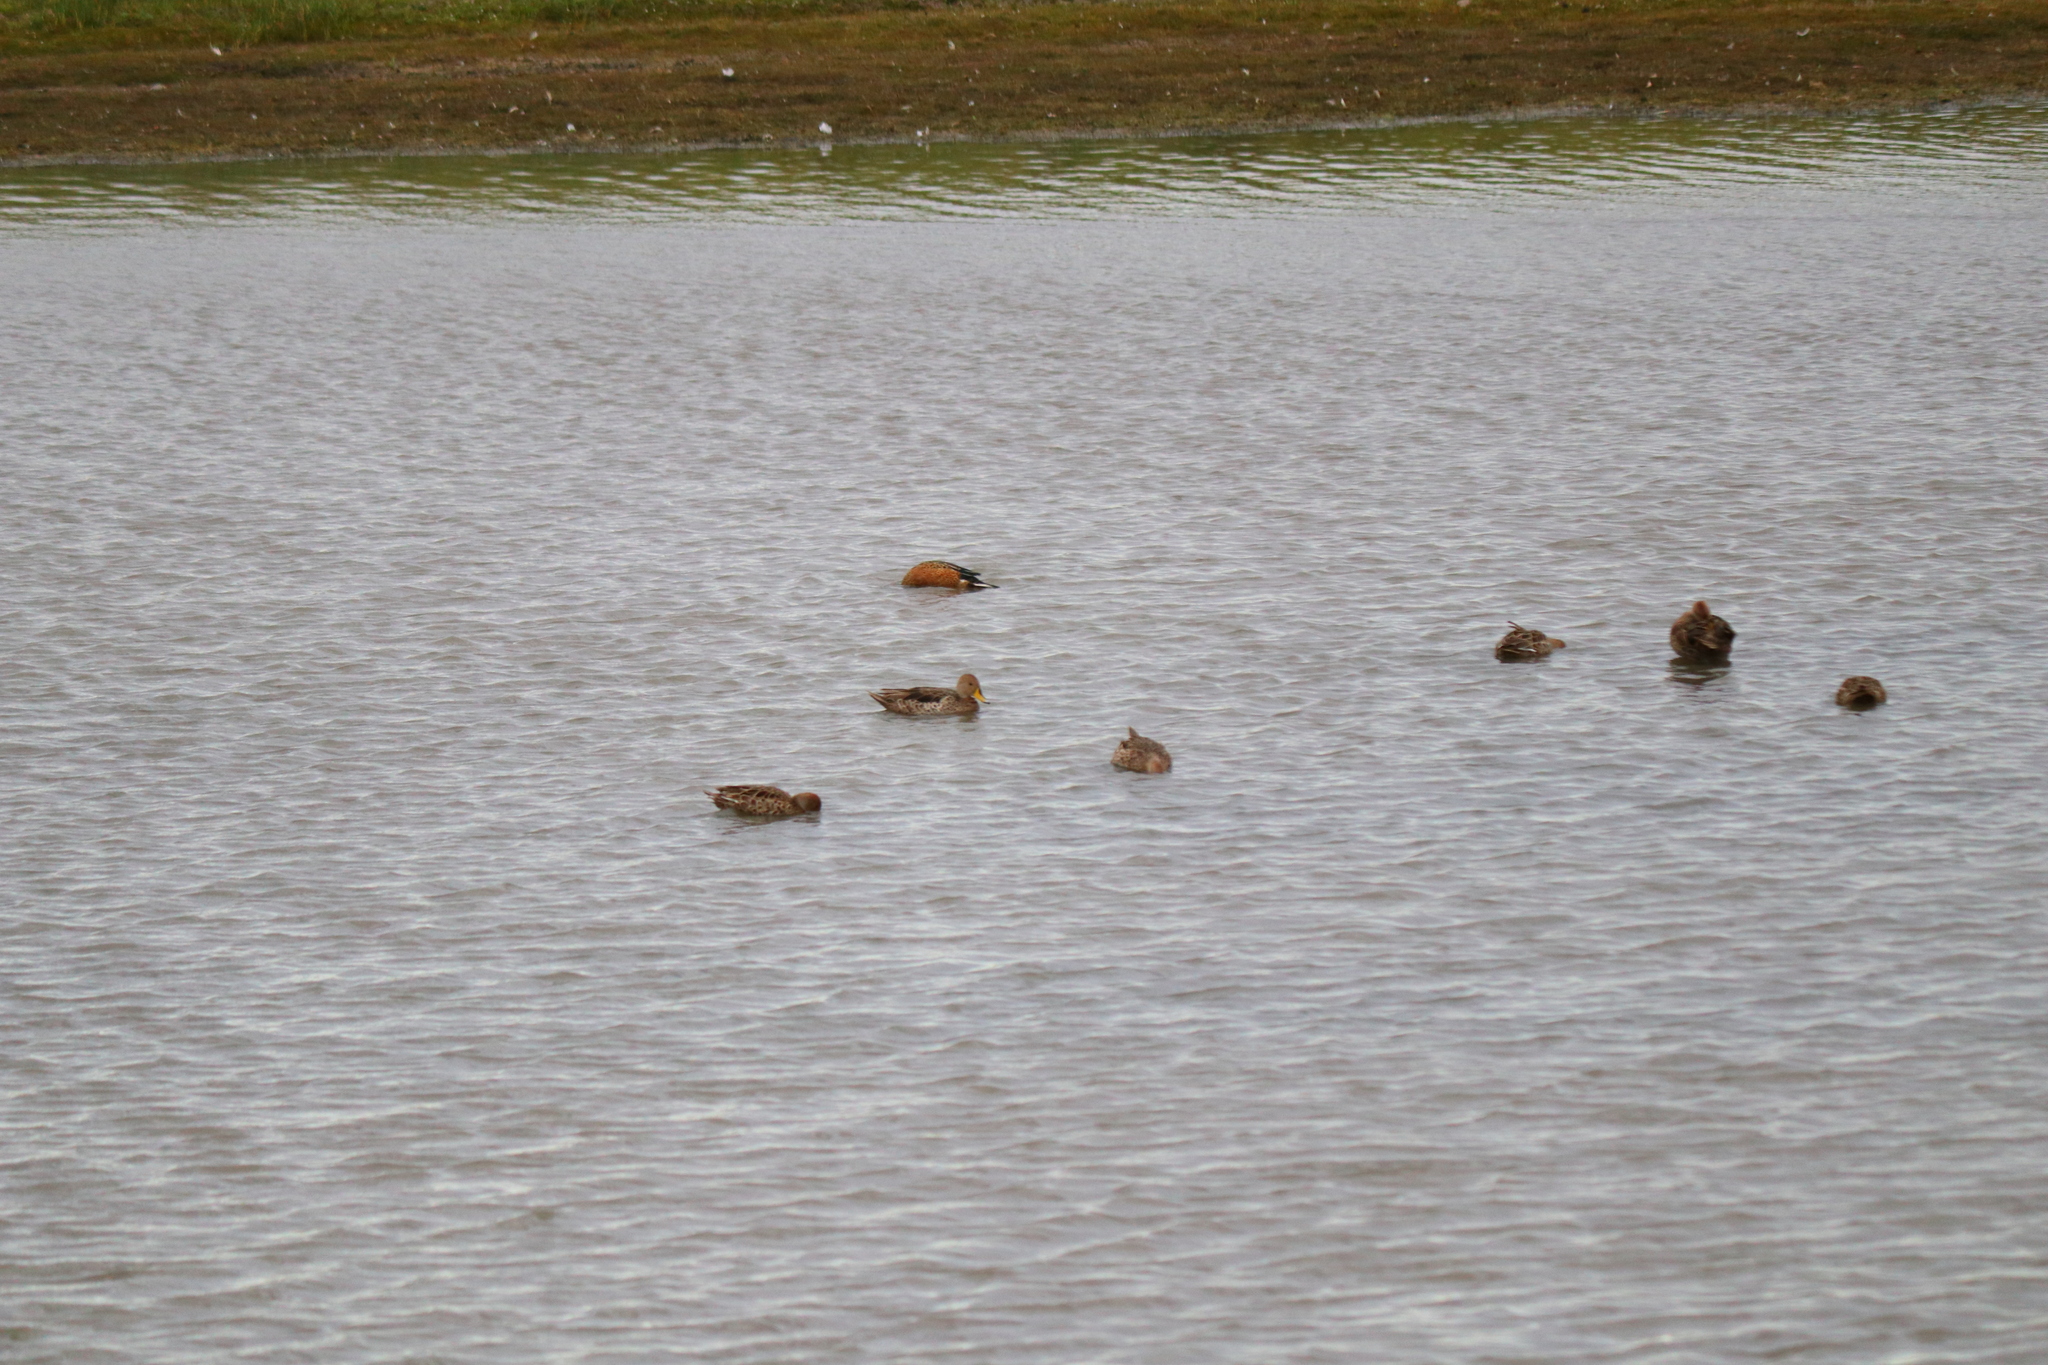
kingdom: Animalia
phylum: Chordata
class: Aves
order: Anseriformes
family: Anatidae
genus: Anas
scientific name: Anas georgica
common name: Yellow-billed pintail
